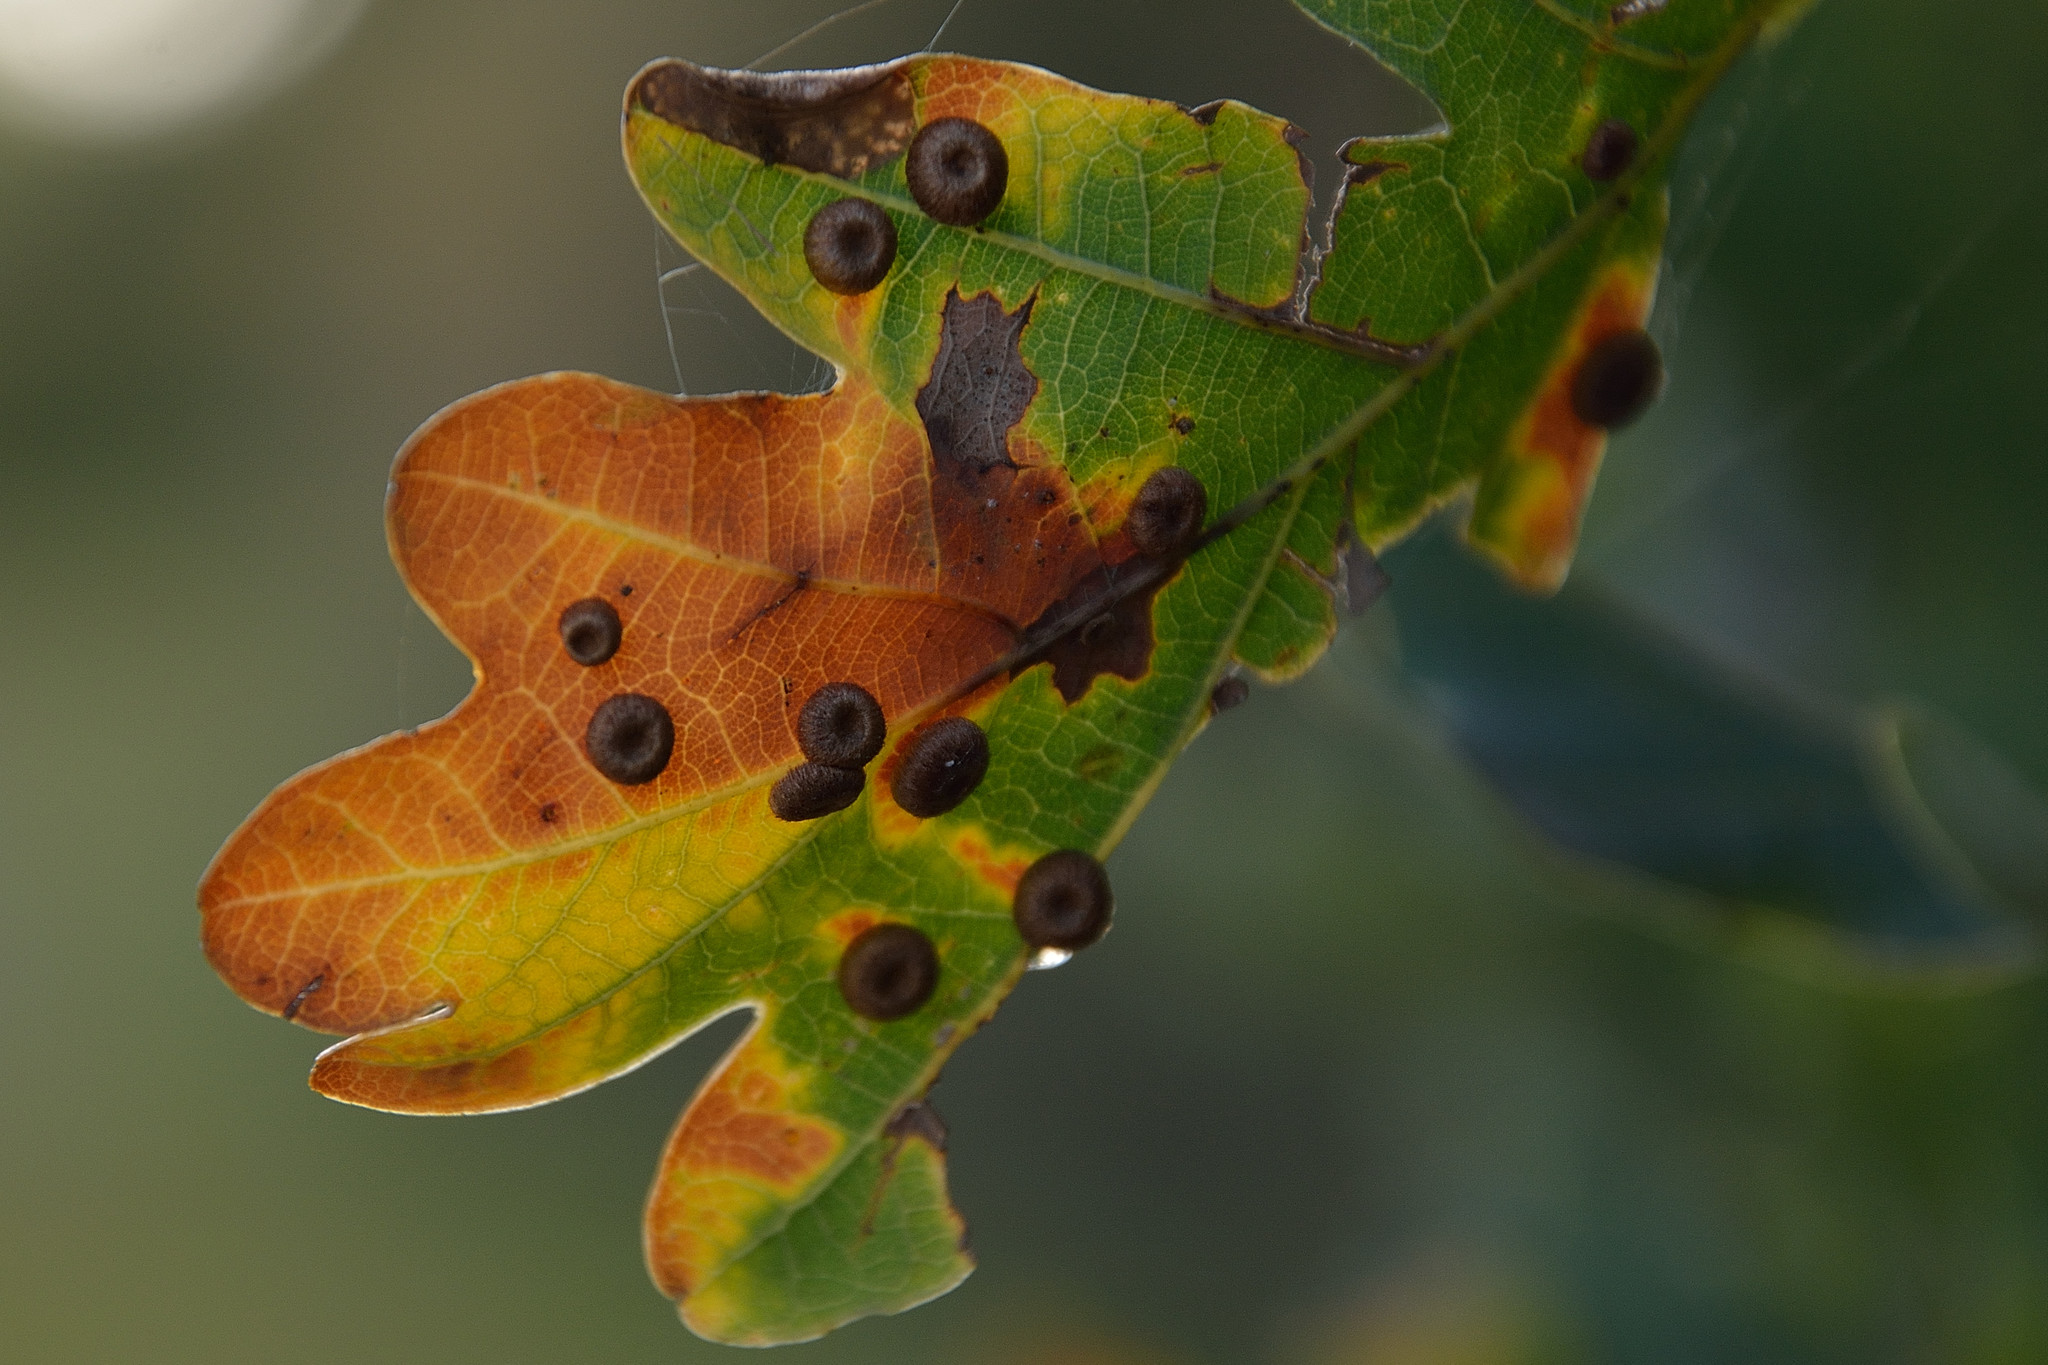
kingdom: Animalia
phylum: Arthropoda
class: Insecta
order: Hymenoptera
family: Cynipidae
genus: Neuroterus
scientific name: Neuroterus numismalis
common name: Silk-button spangle gall
